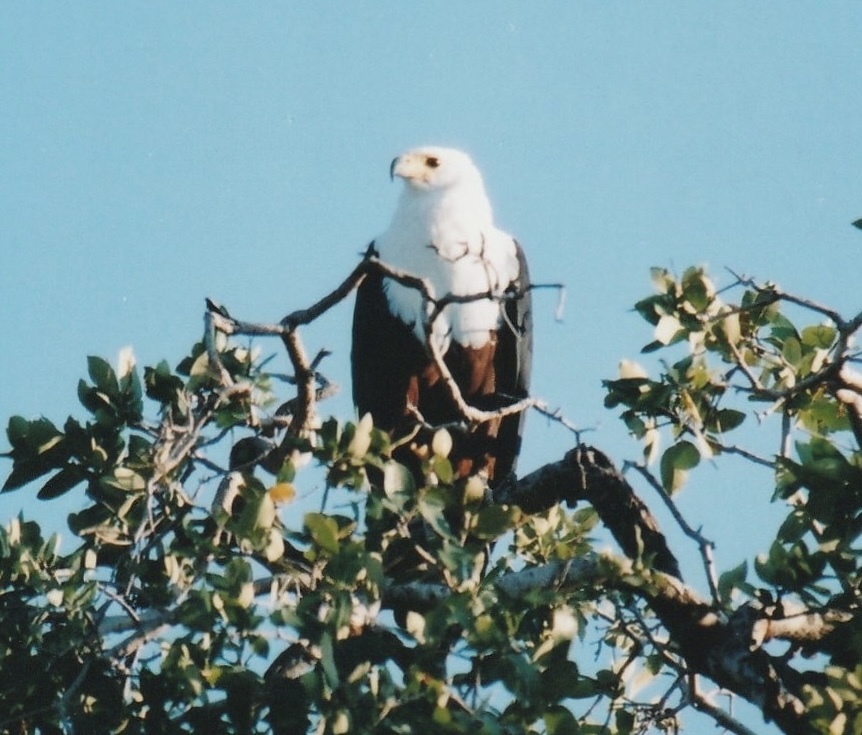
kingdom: Animalia
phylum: Chordata
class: Aves
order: Accipitriformes
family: Accipitridae
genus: Haliaeetus
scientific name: Haliaeetus vocifer
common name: African fish eagle
